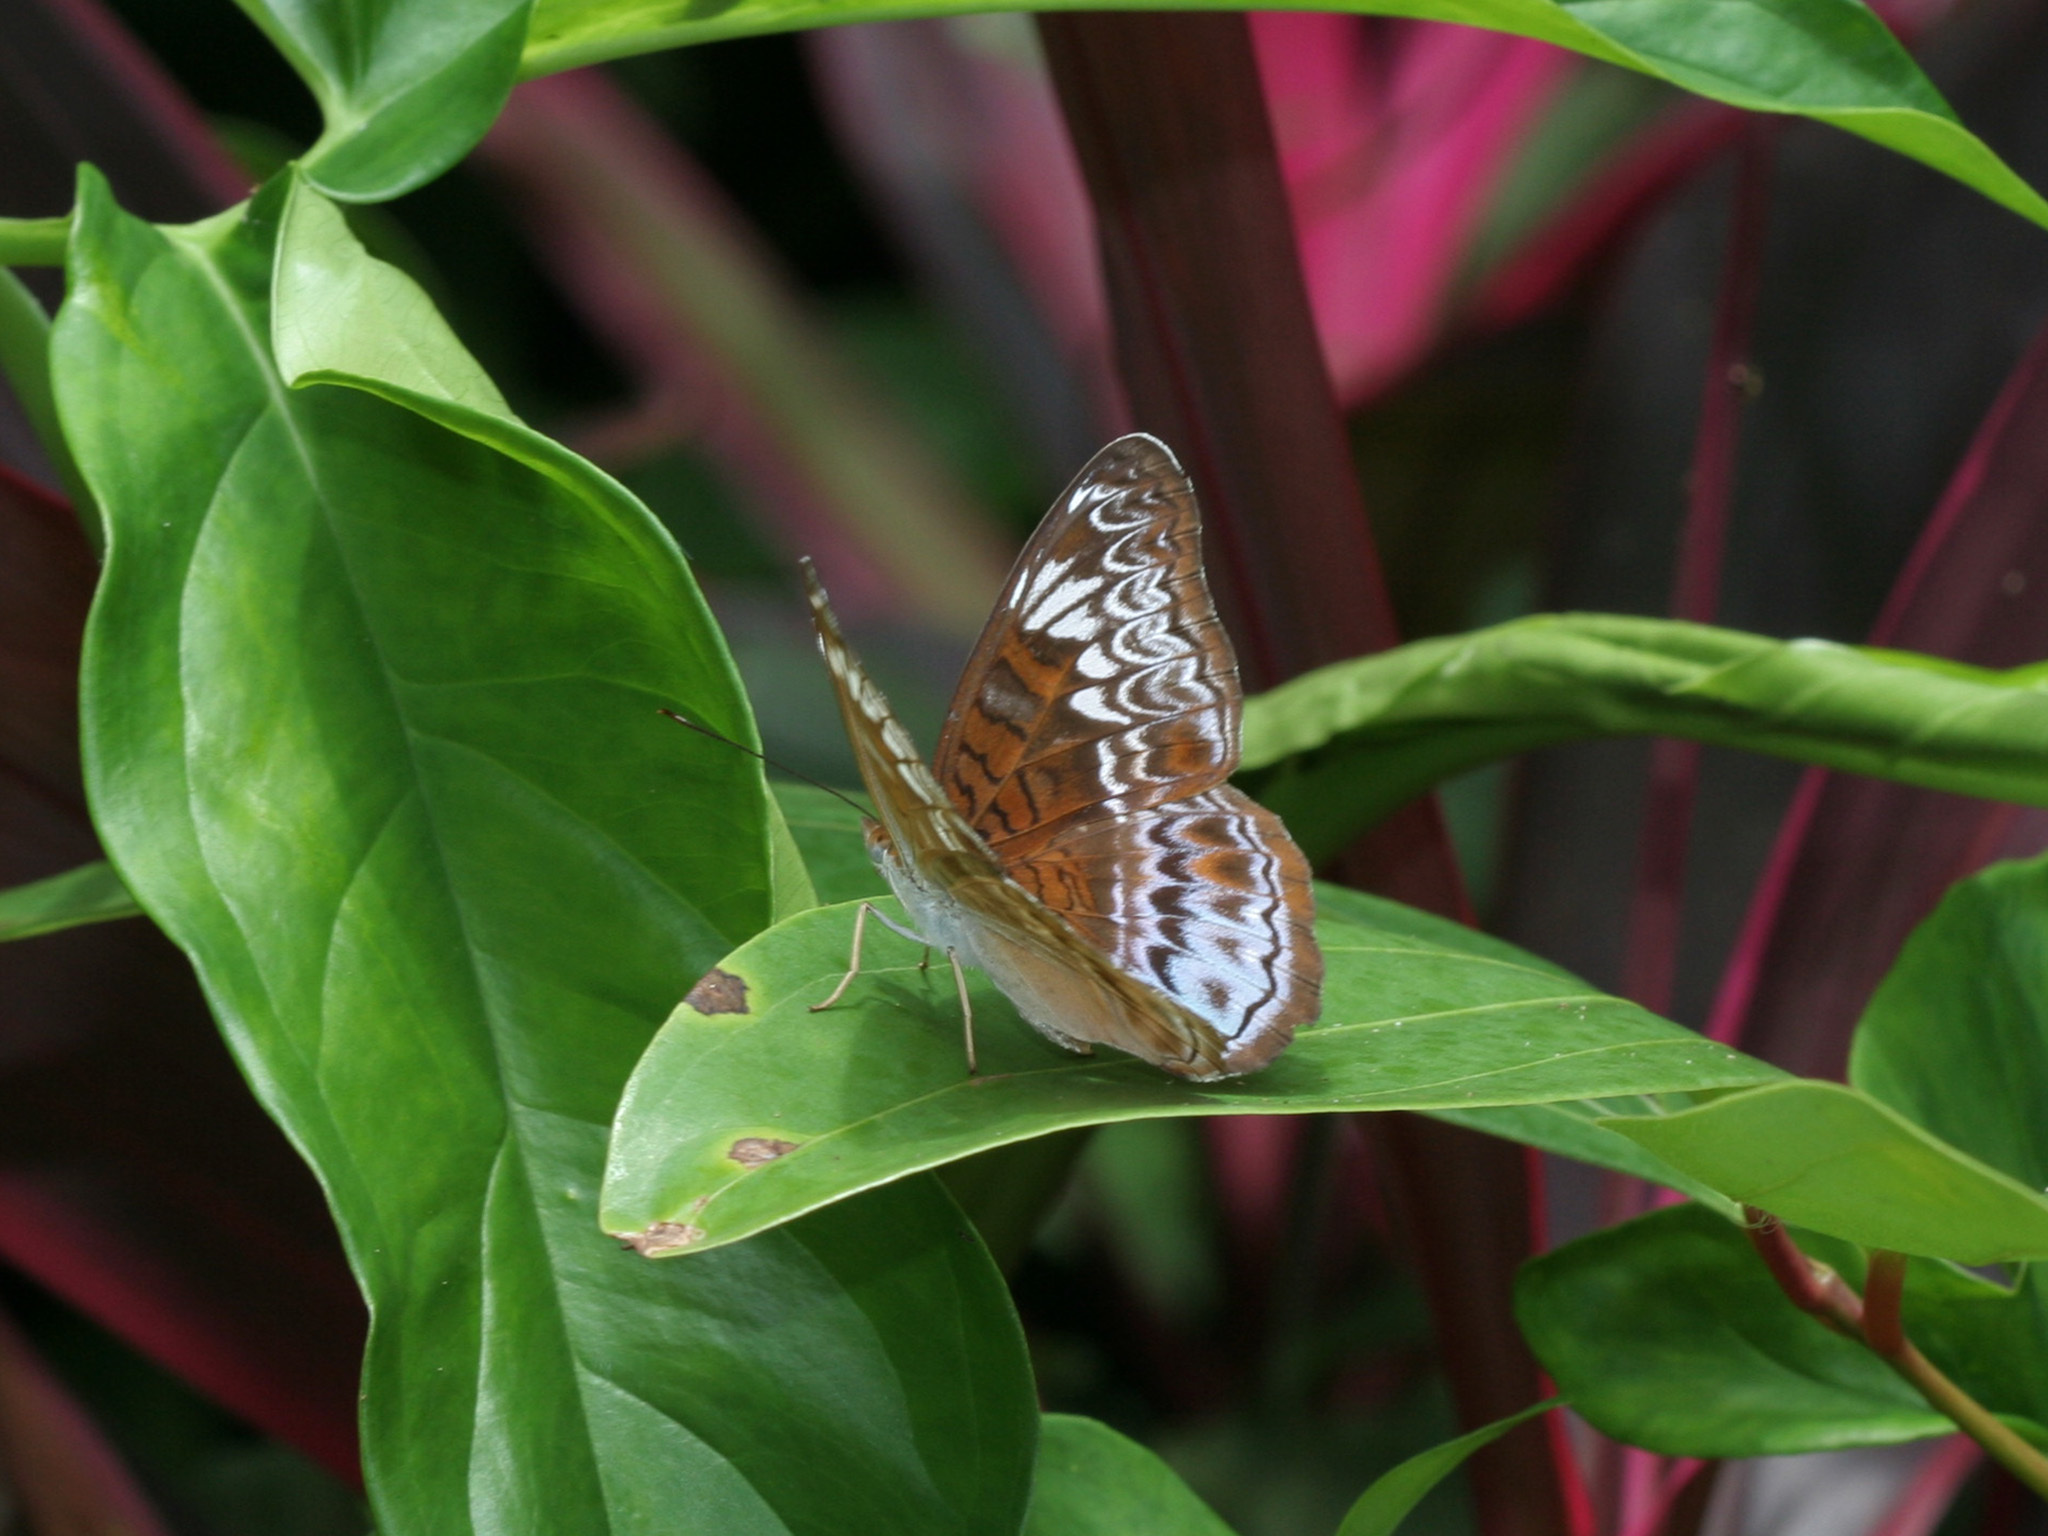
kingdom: Animalia
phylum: Arthropoda
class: Insecta
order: Lepidoptera
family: Nymphalidae
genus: Lebadea
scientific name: Lebadea martha
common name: Knight
